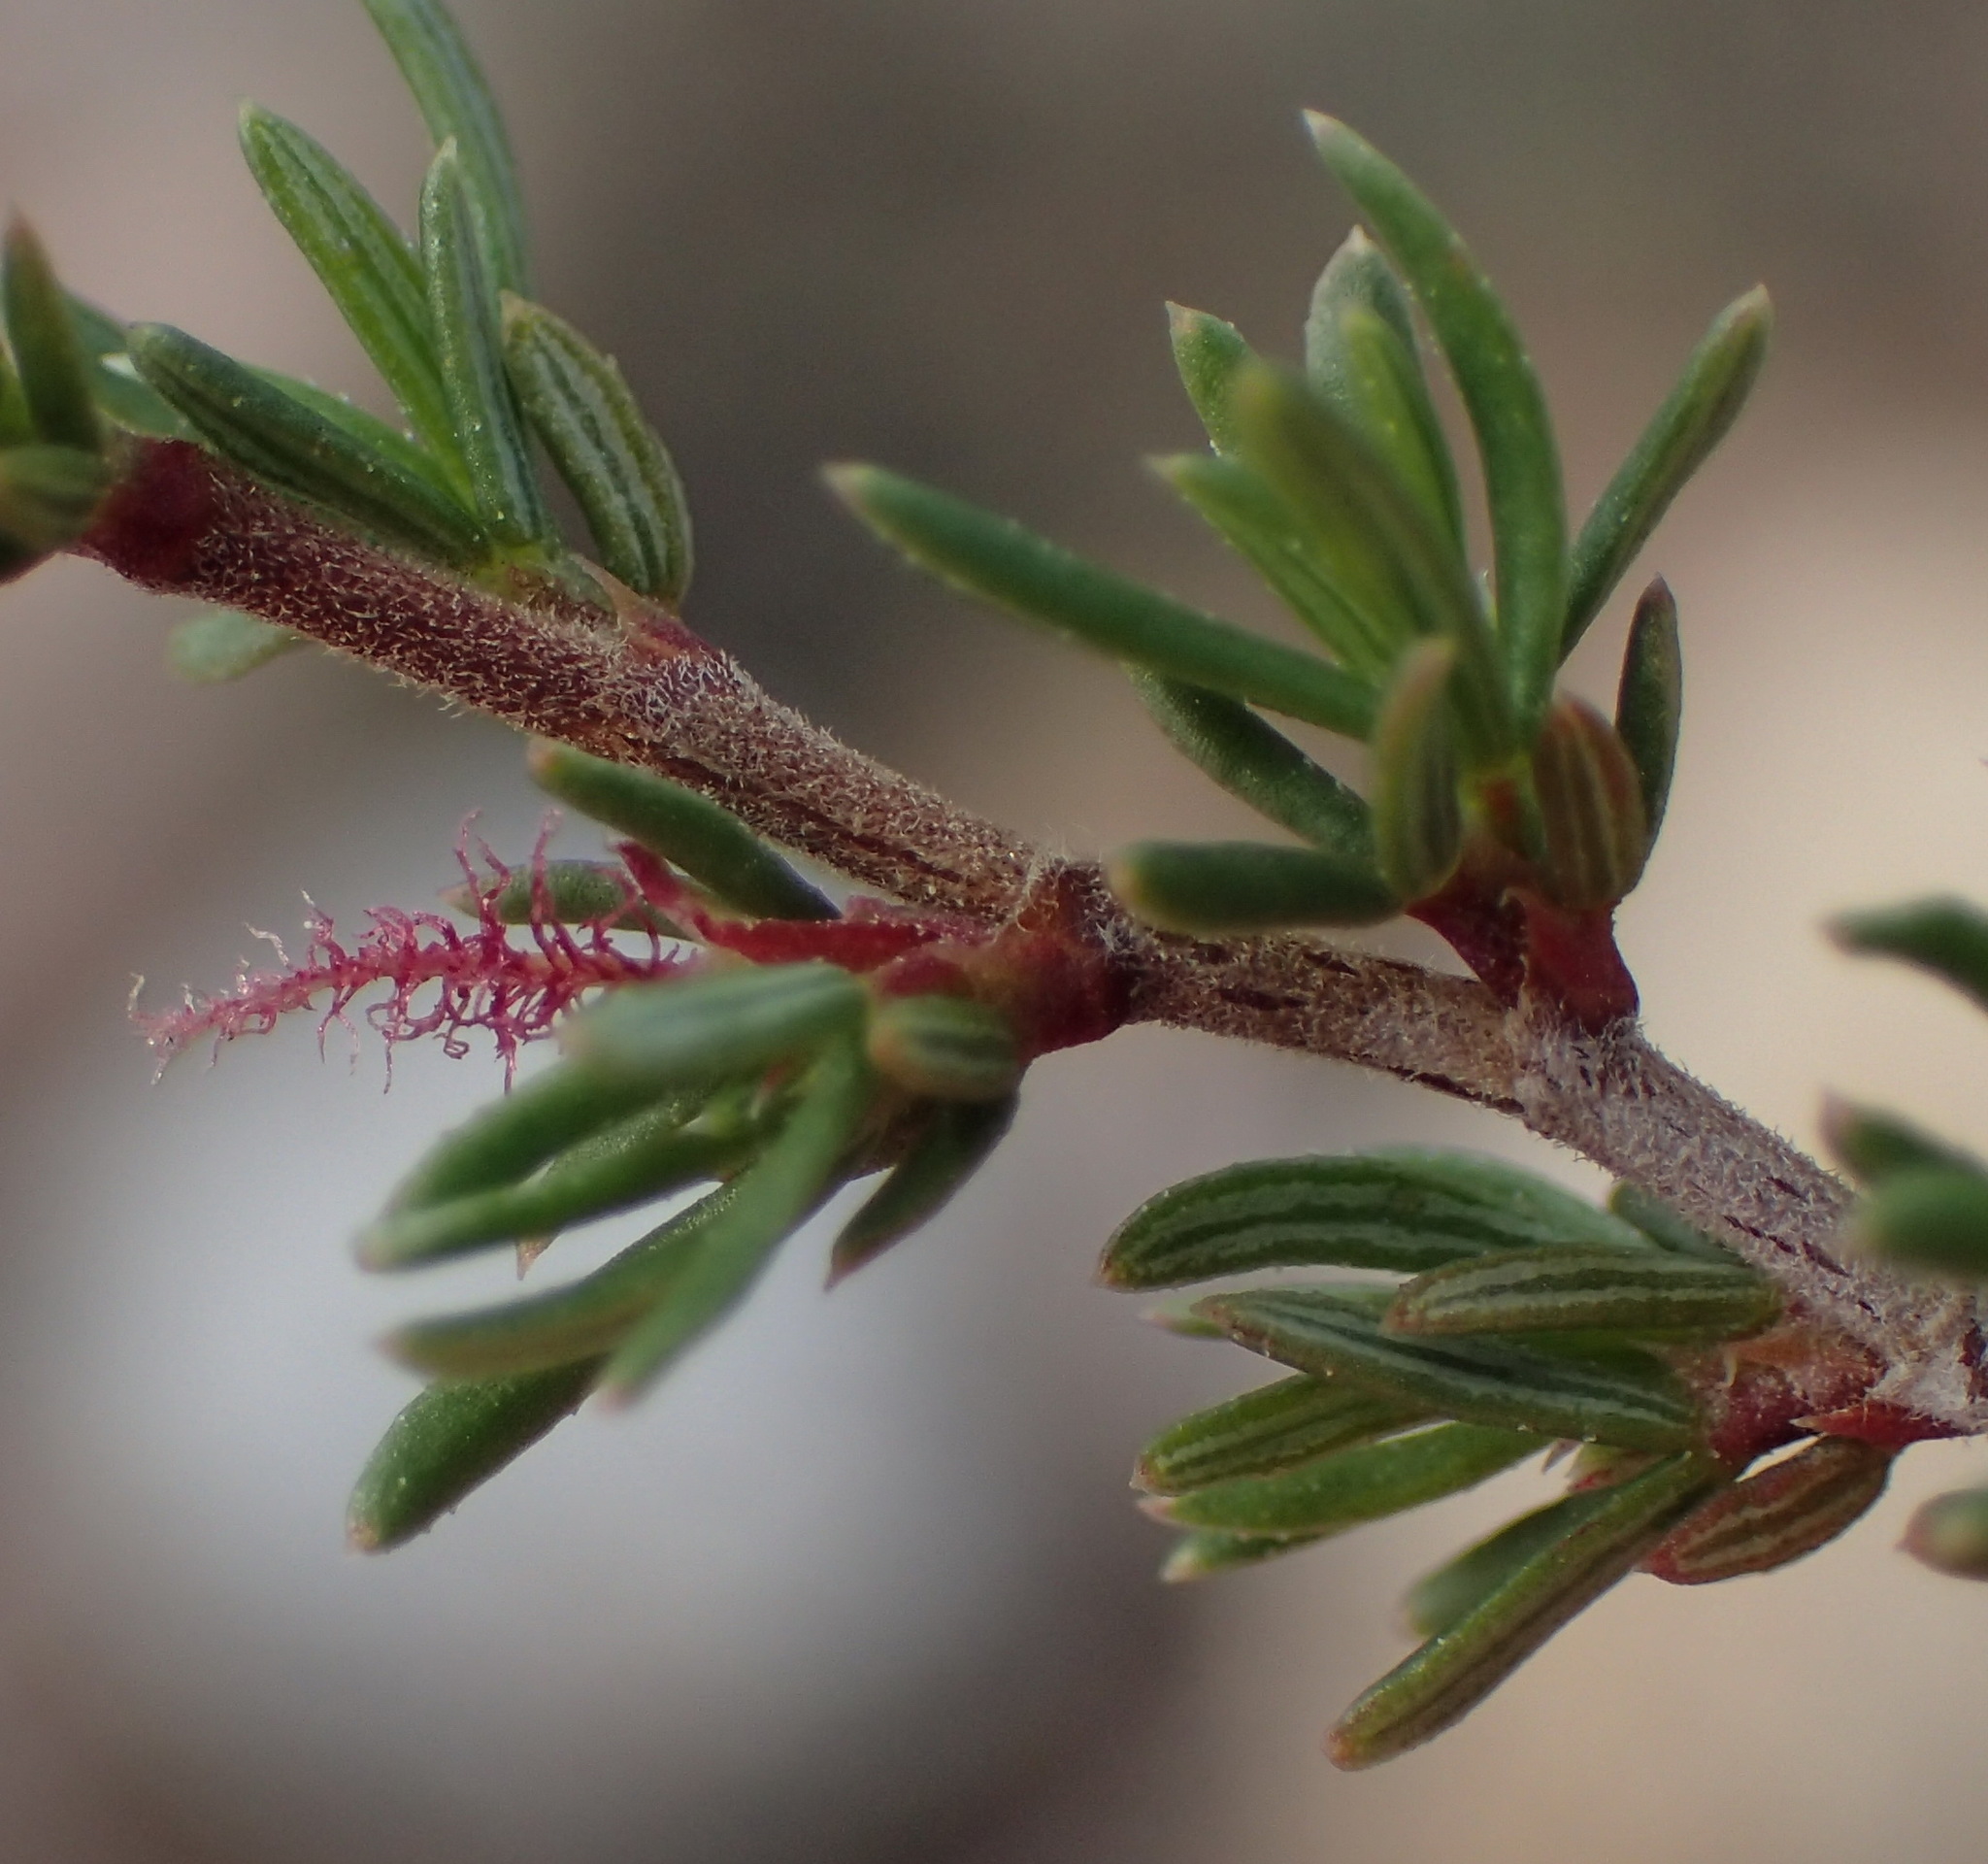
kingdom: Plantae
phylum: Tracheophyta
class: Magnoliopsida
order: Rosales
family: Rosaceae
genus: Cliffortia
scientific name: Cliffortia ramosissima
